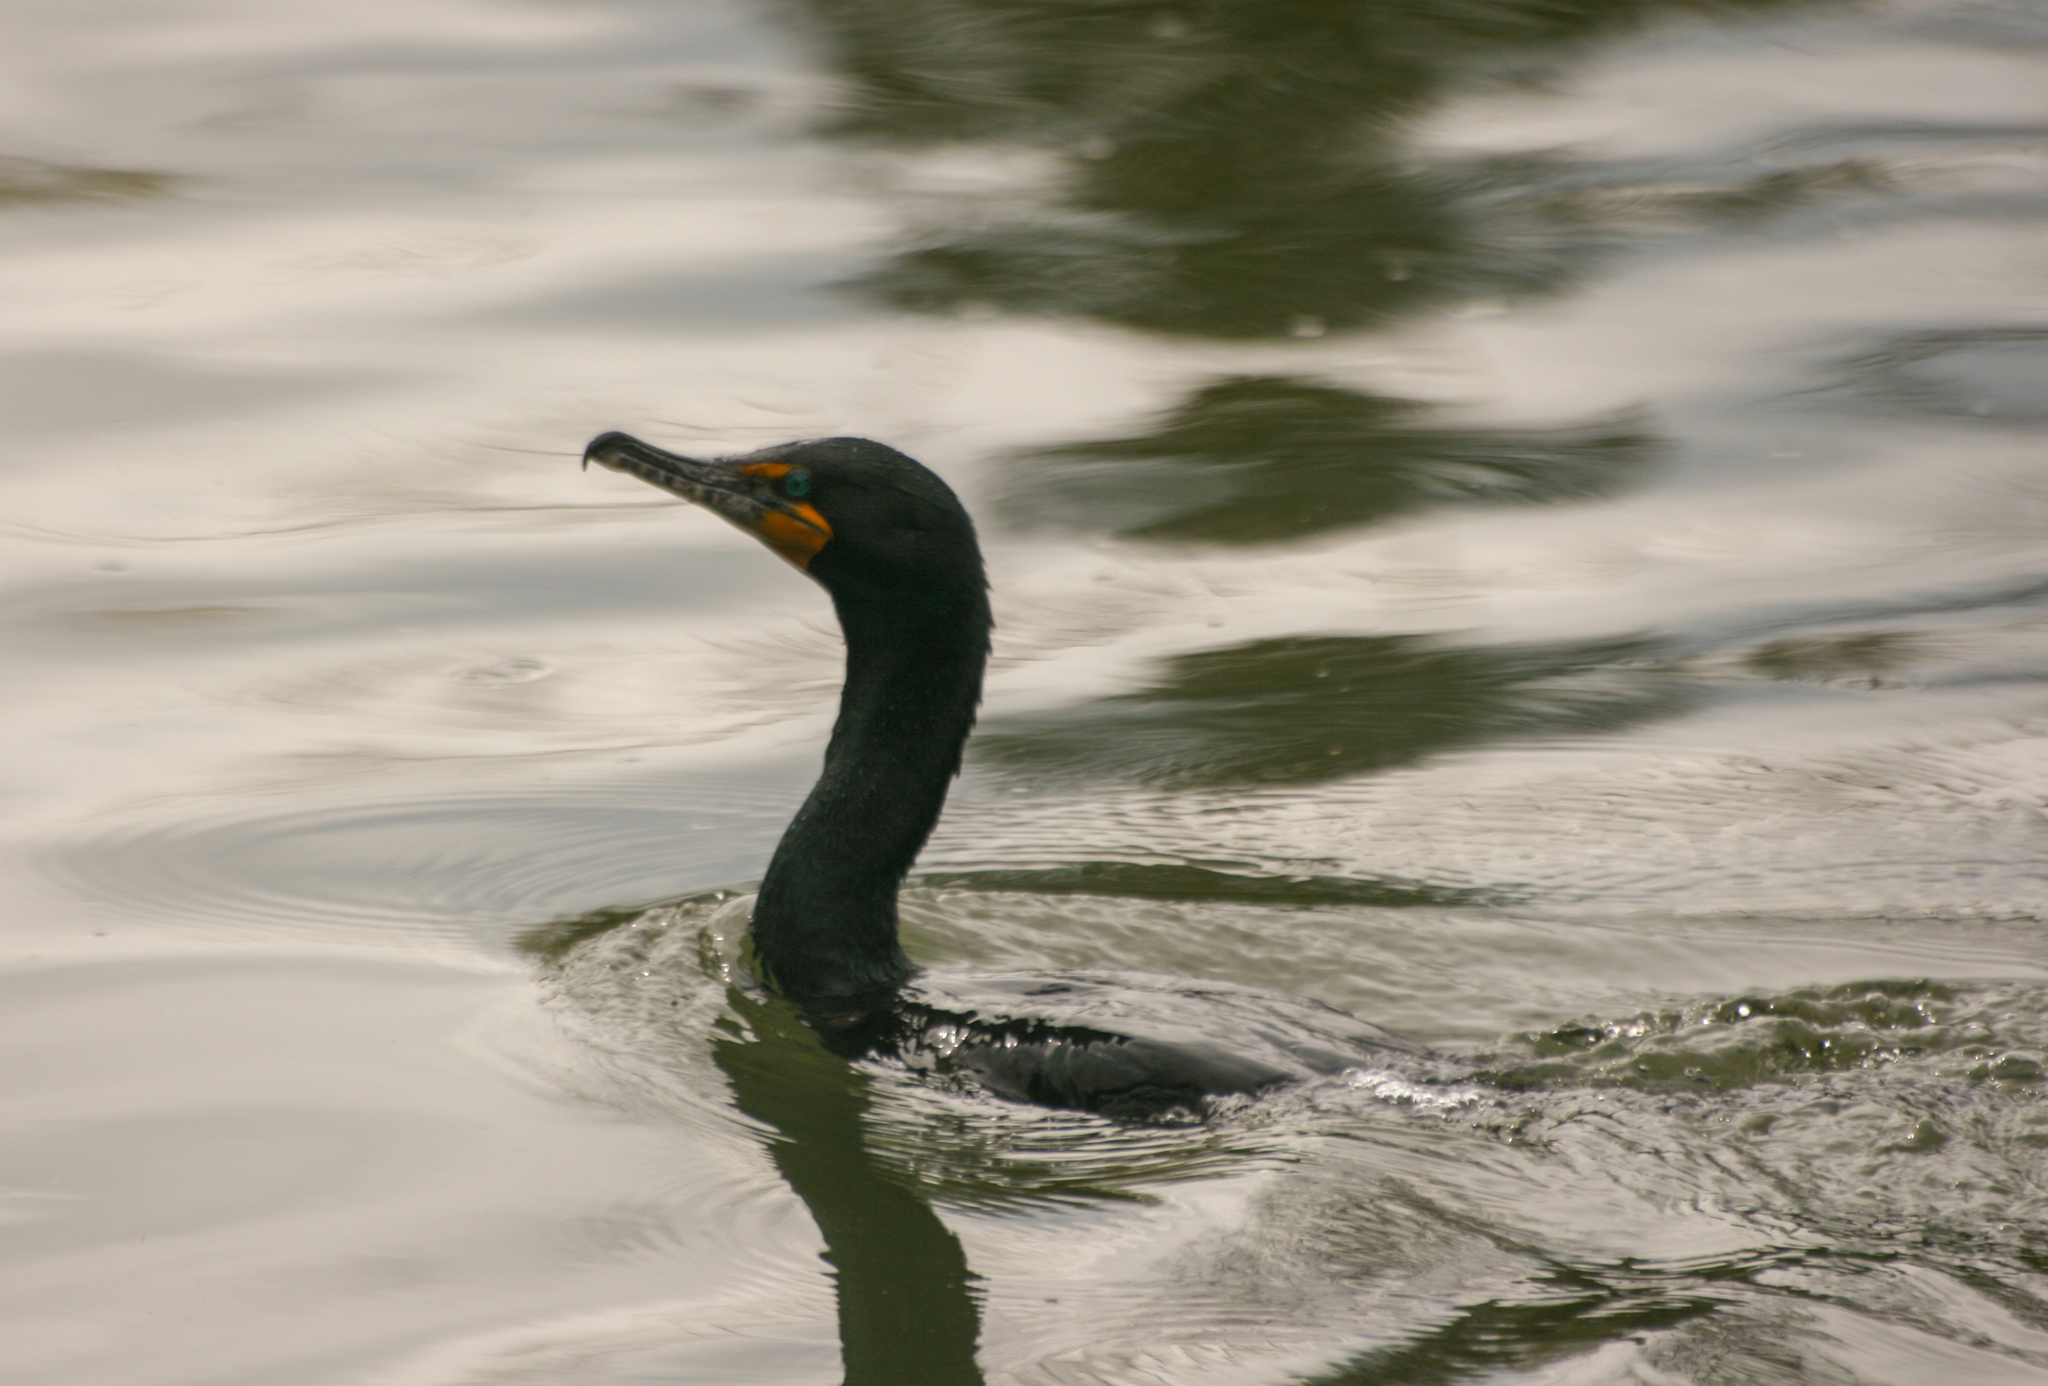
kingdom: Animalia
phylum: Chordata
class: Aves
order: Suliformes
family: Phalacrocoracidae
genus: Phalacrocorax
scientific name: Phalacrocorax auritus
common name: Double-crested cormorant
